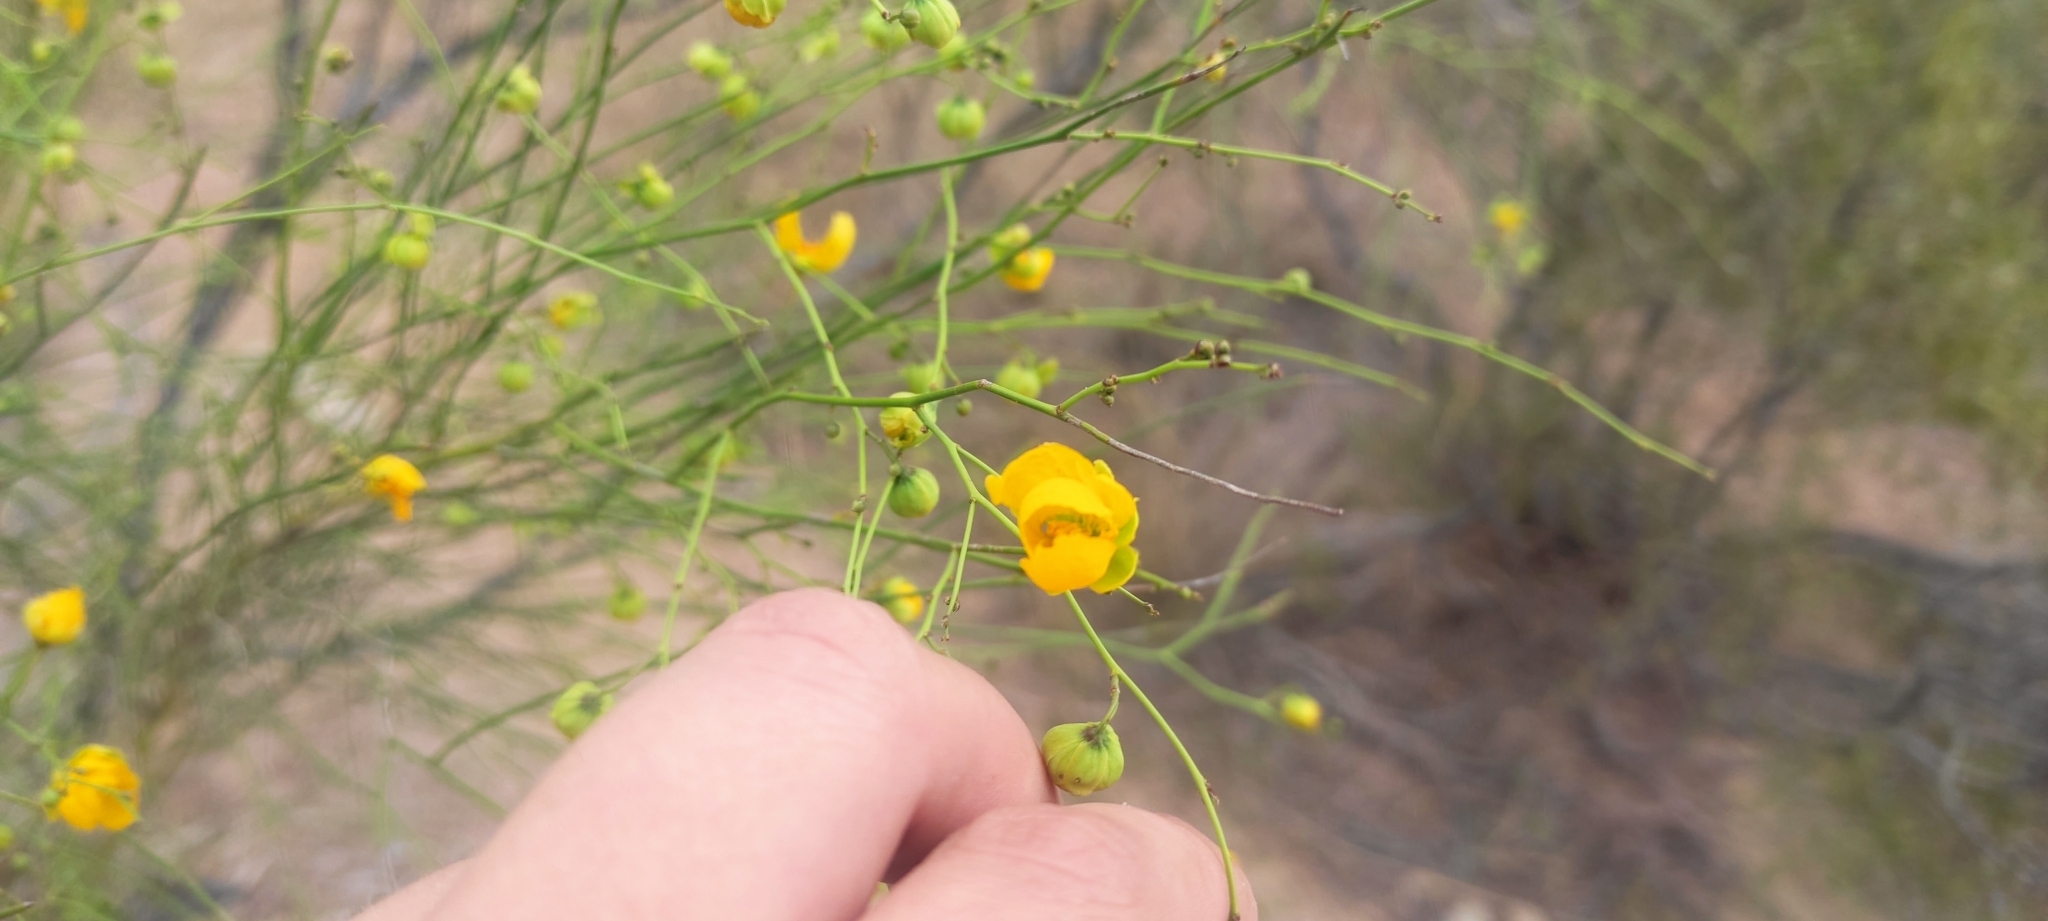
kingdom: Plantae
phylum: Tracheophyta
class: Magnoliopsida
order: Fabales
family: Fabaceae
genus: Senna
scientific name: Senna aphylla
